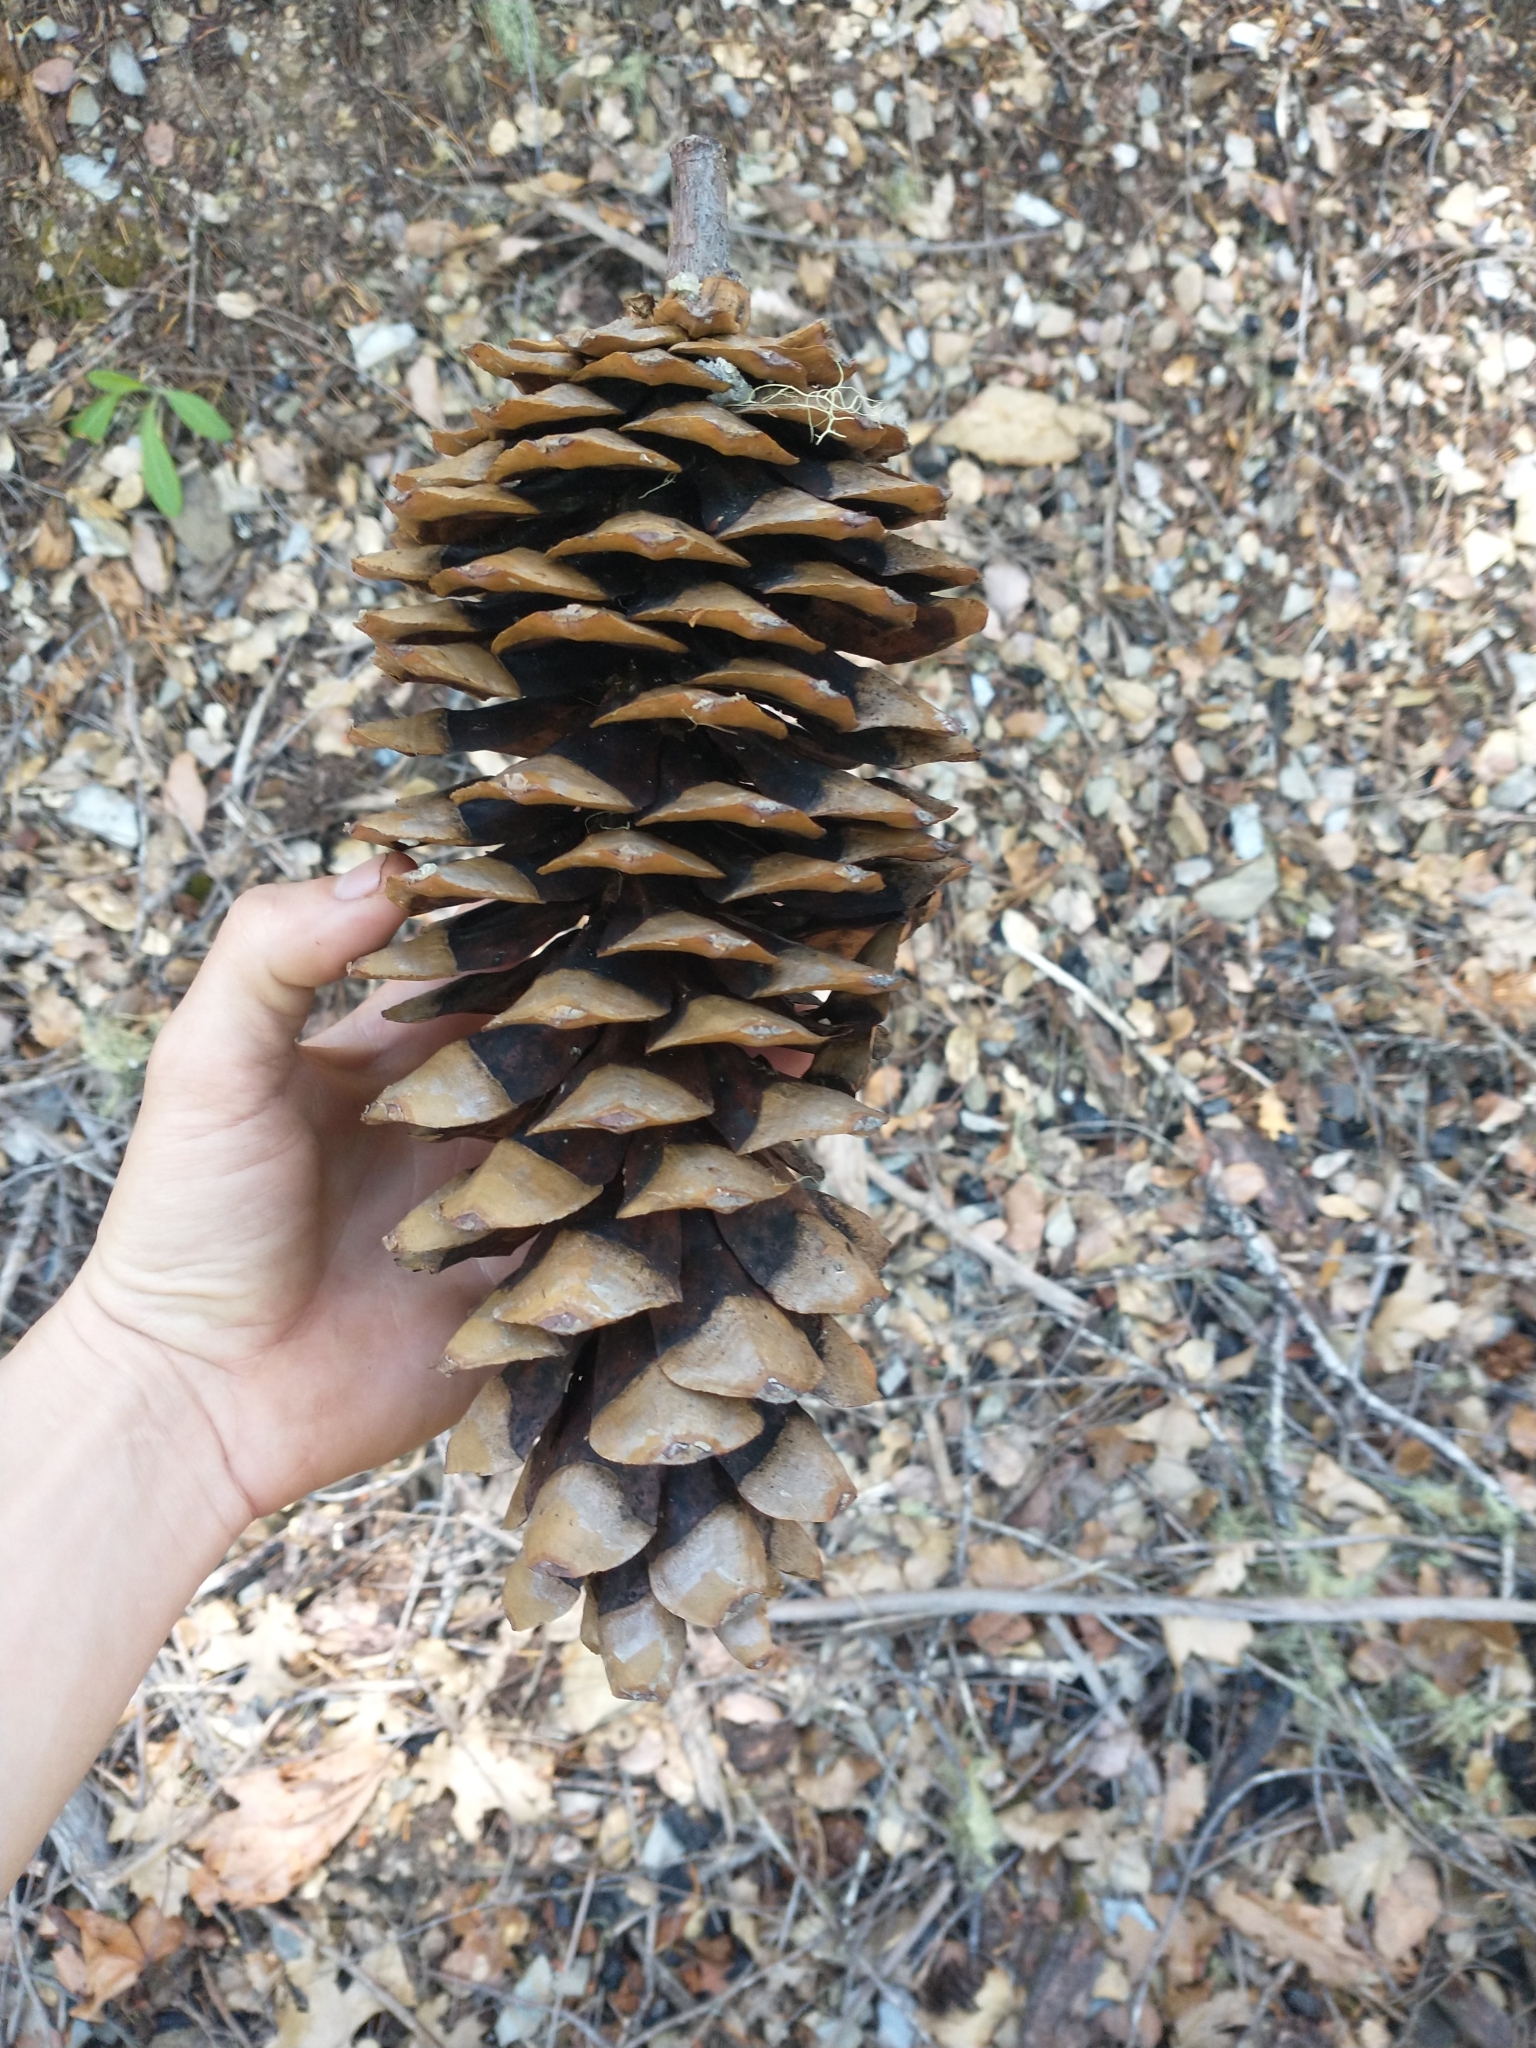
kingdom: Plantae
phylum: Tracheophyta
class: Pinopsida
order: Pinales
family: Pinaceae
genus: Pinus
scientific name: Pinus lambertiana
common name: Sugar pine
